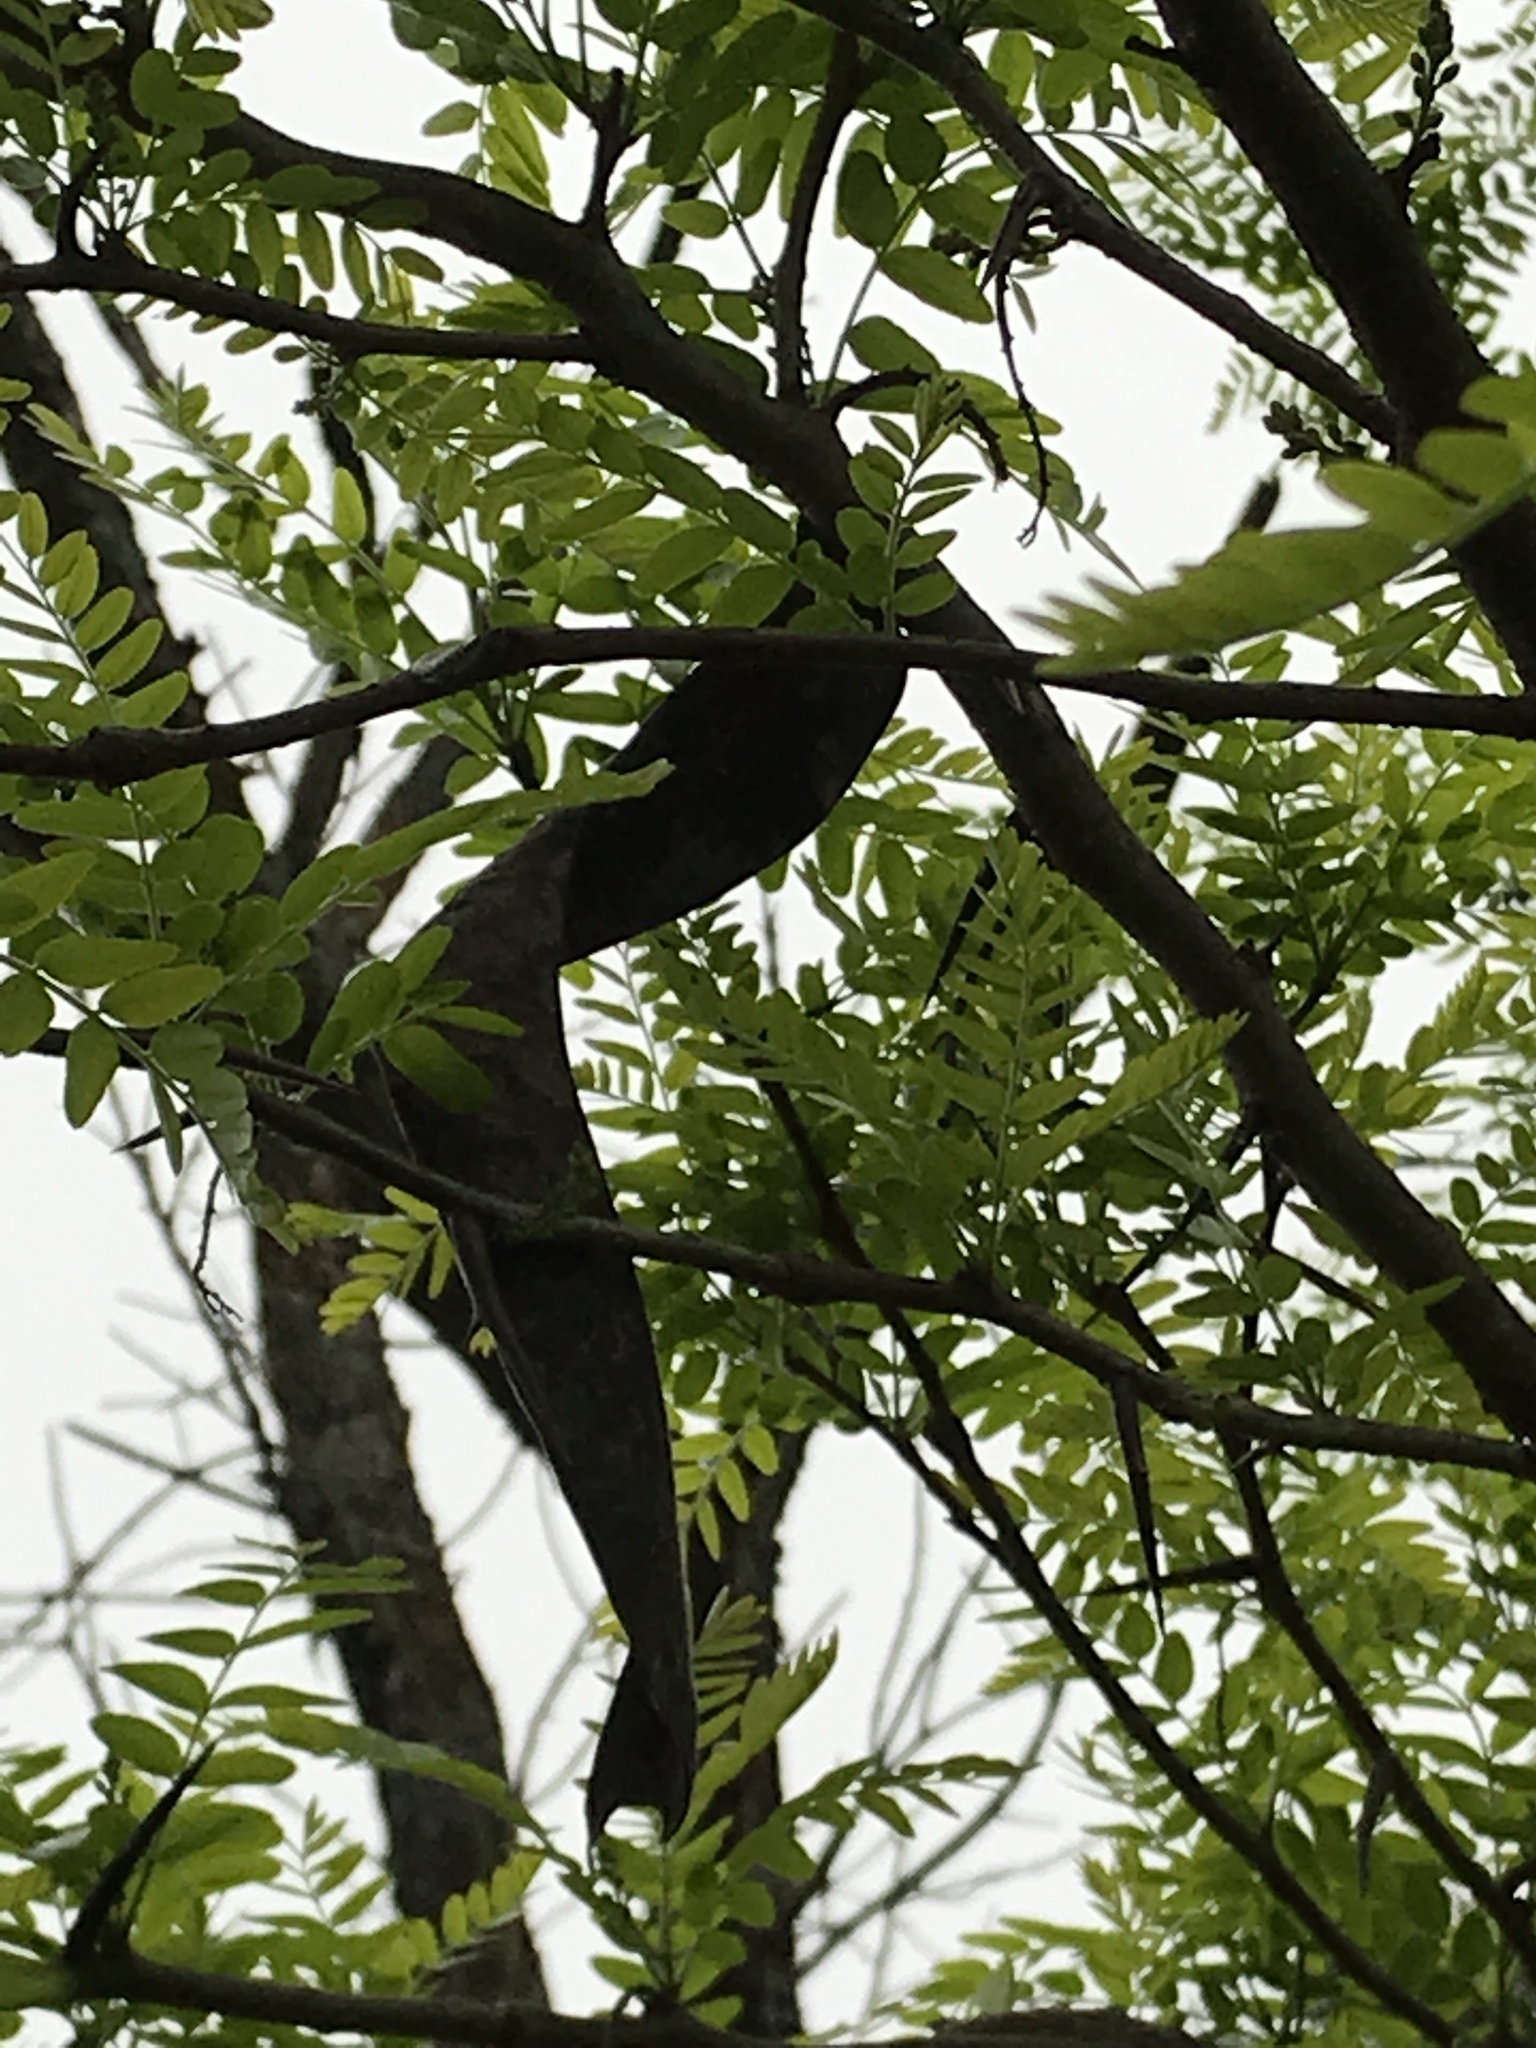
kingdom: Plantae
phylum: Tracheophyta
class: Magnoliopsida
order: Fabales
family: Fabaceae
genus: Gleditsia
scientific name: Gleditsia triacanthos
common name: Common honeylocust
